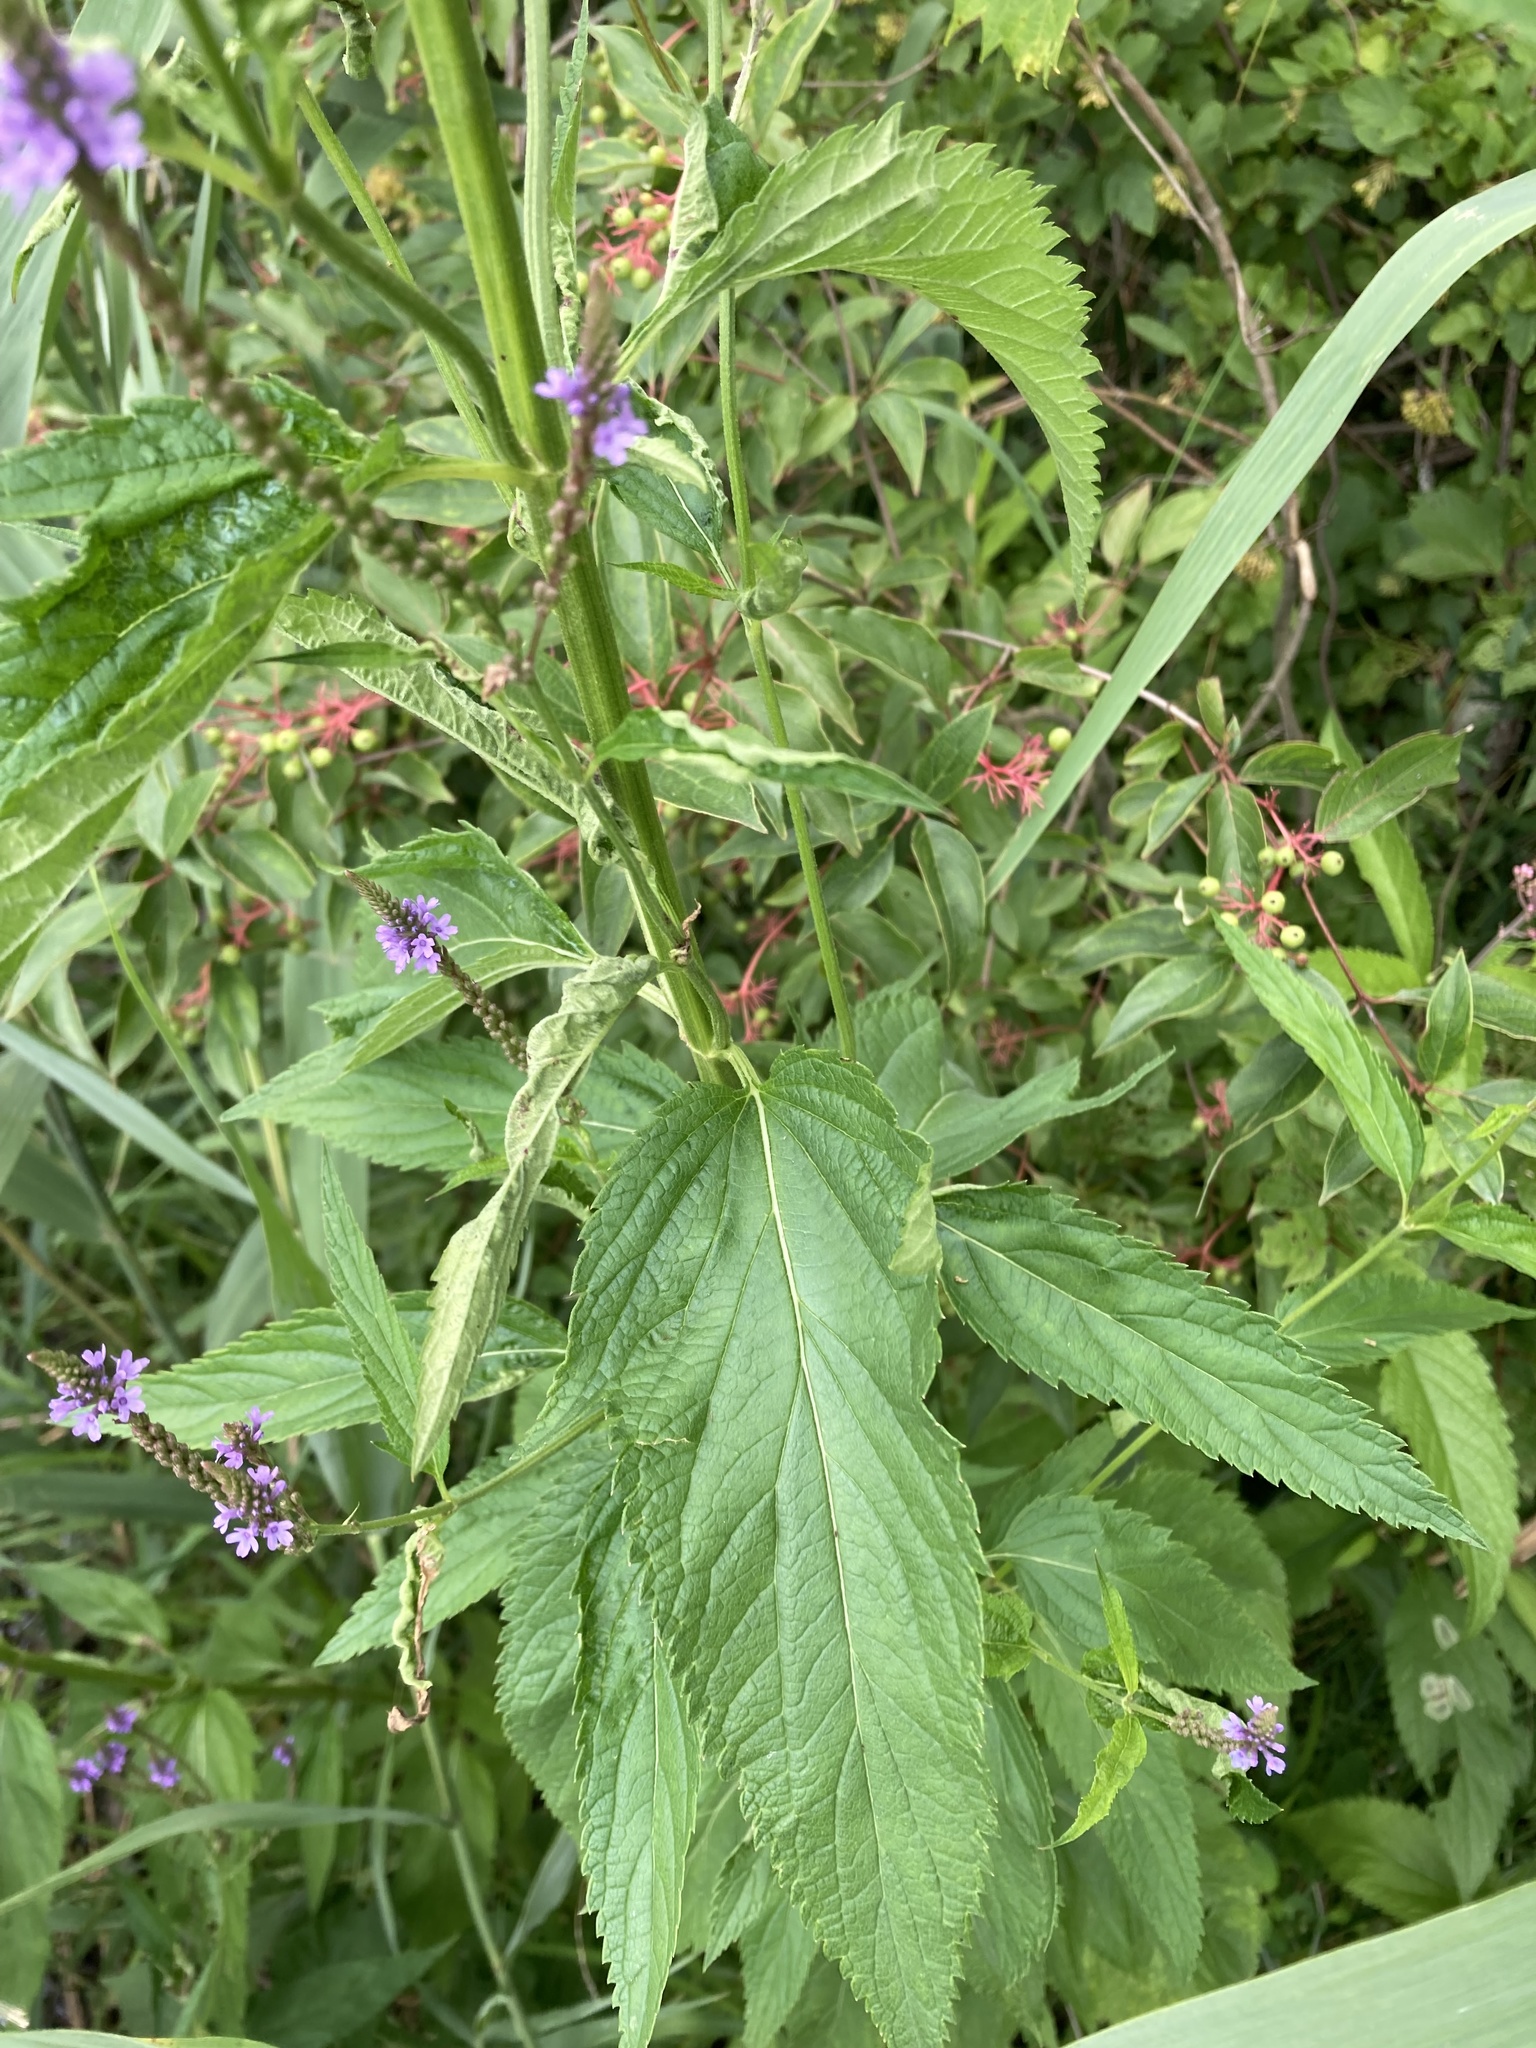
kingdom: Plantae
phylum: Tracheophyta
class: Magnoliopsida
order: Lamiales
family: Verbenaceae
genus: Verbena
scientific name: Verbena hastata
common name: American blue vervain
